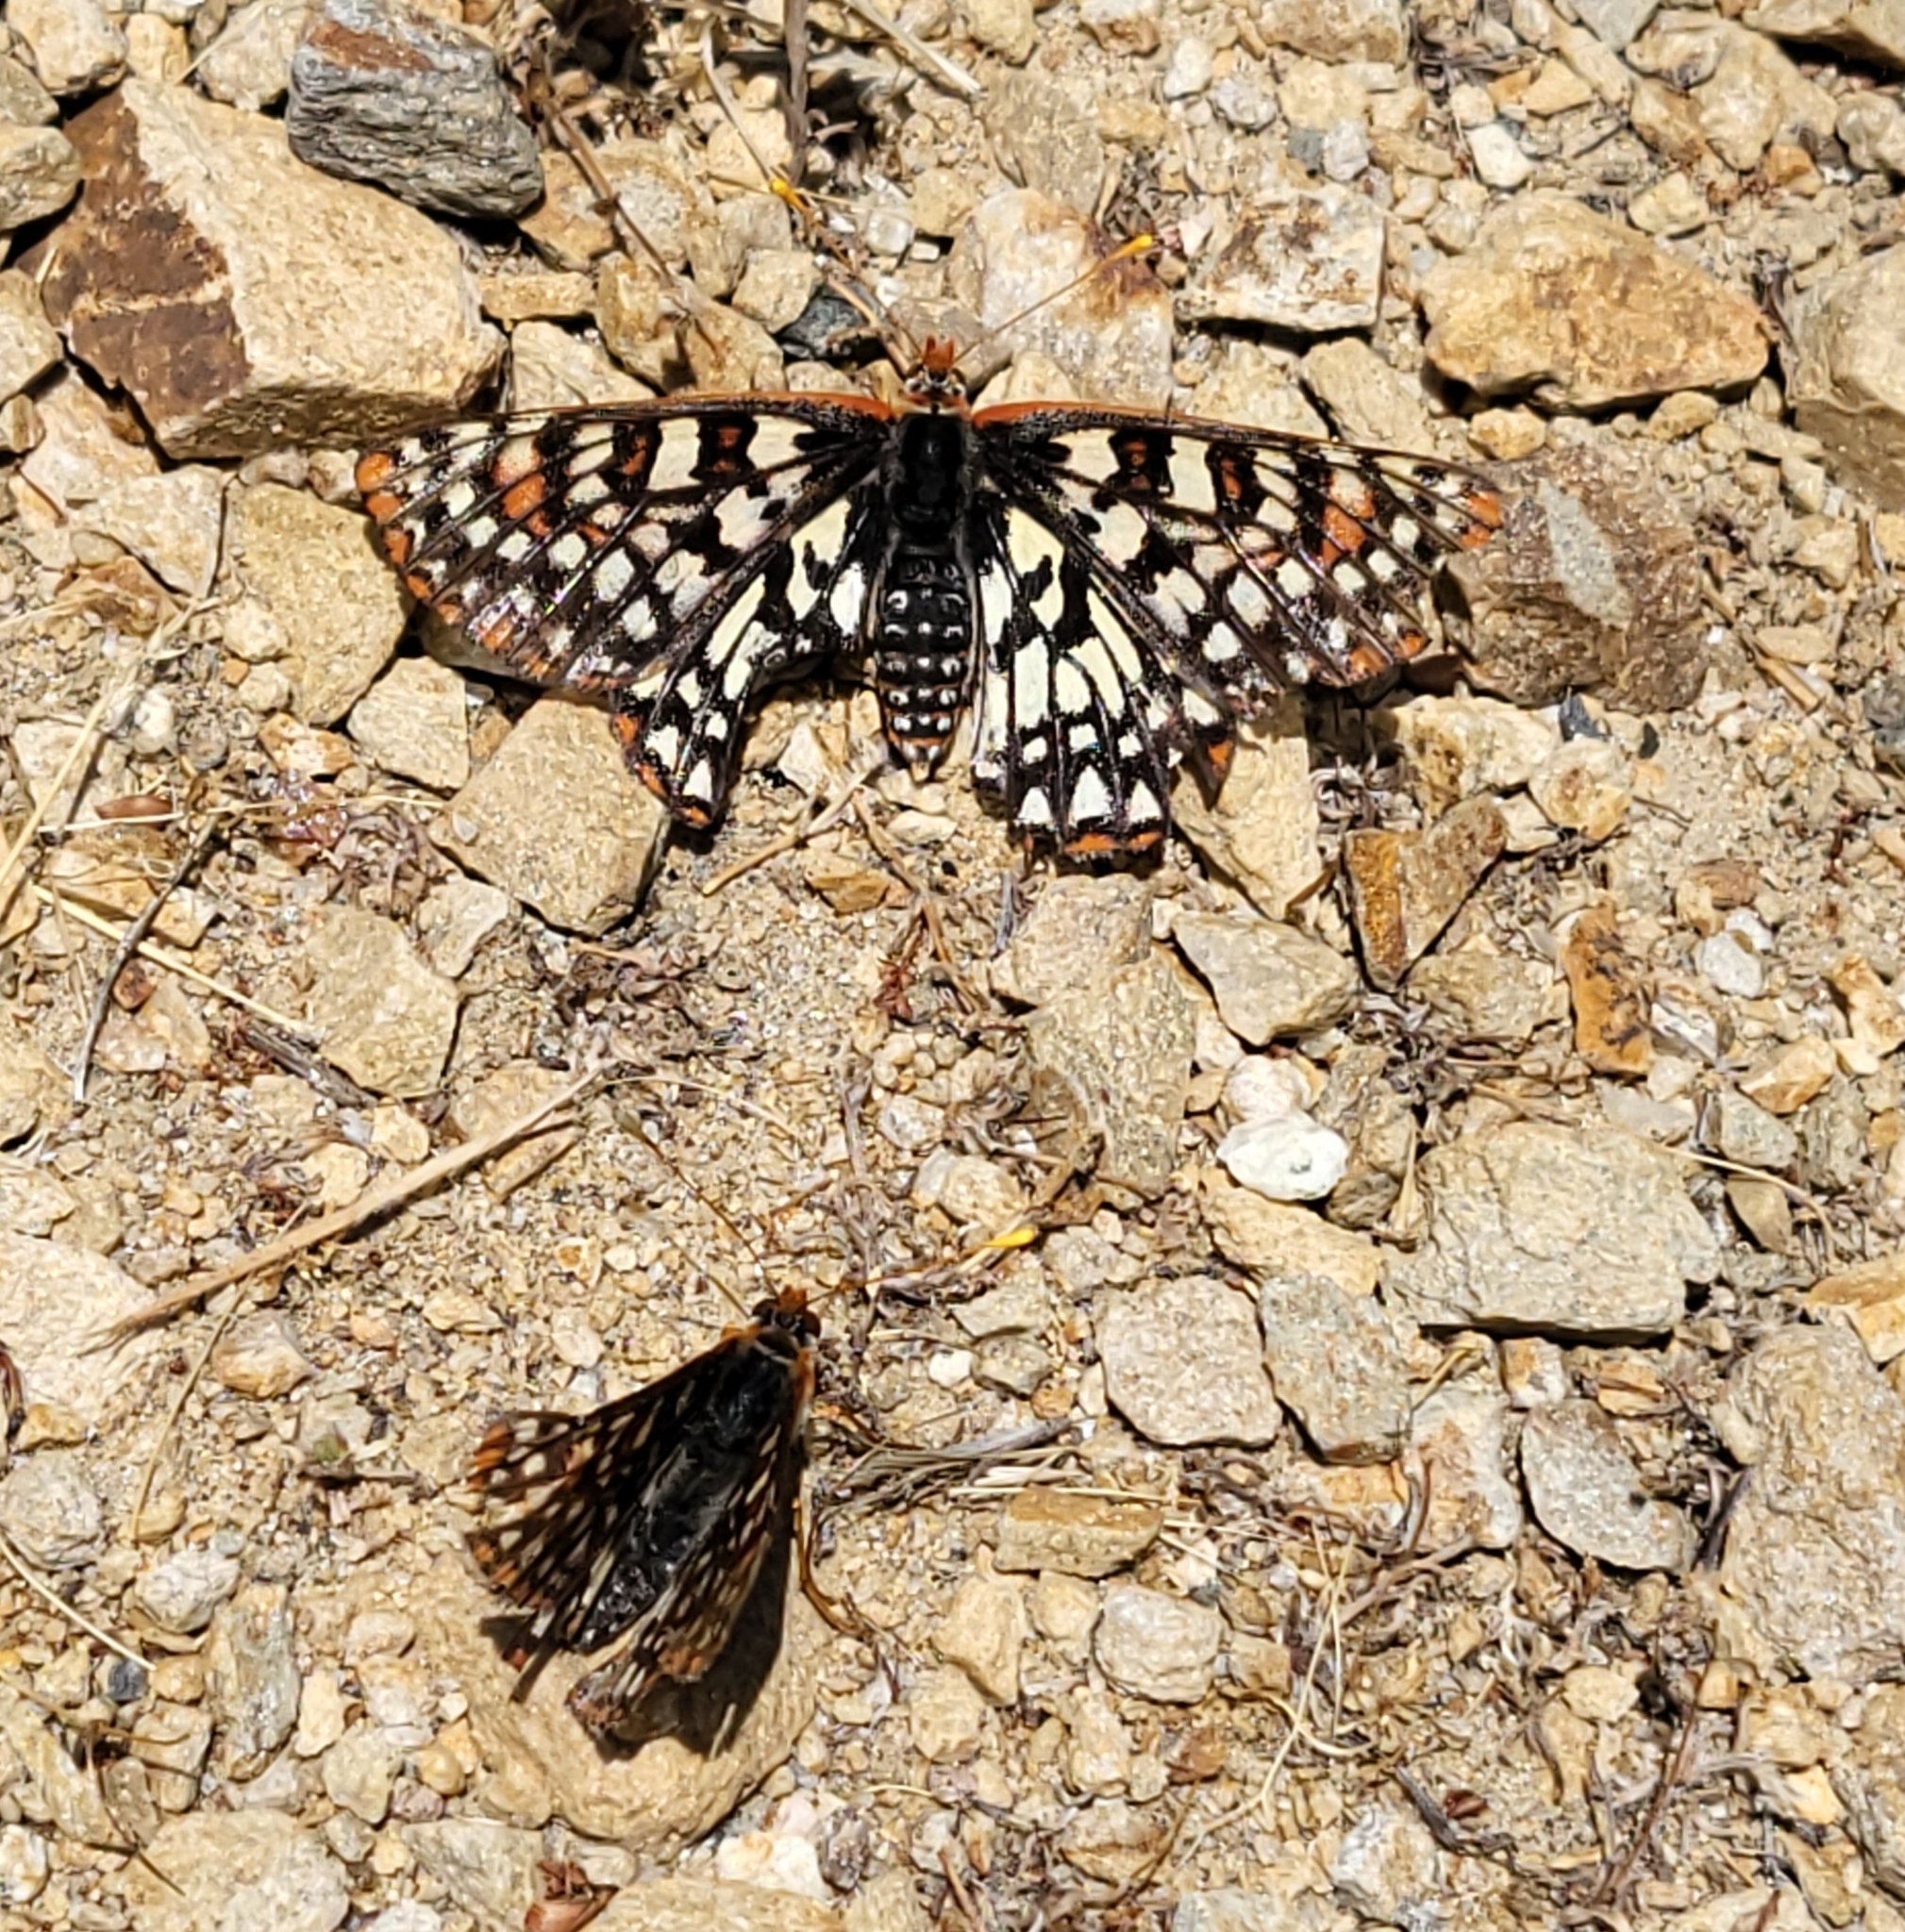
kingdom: Animalia
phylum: Arthropoda
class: Insecta
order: Lepidoptera
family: Nymphalidae
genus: Occidryas
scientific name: Occidryas chalcedona
